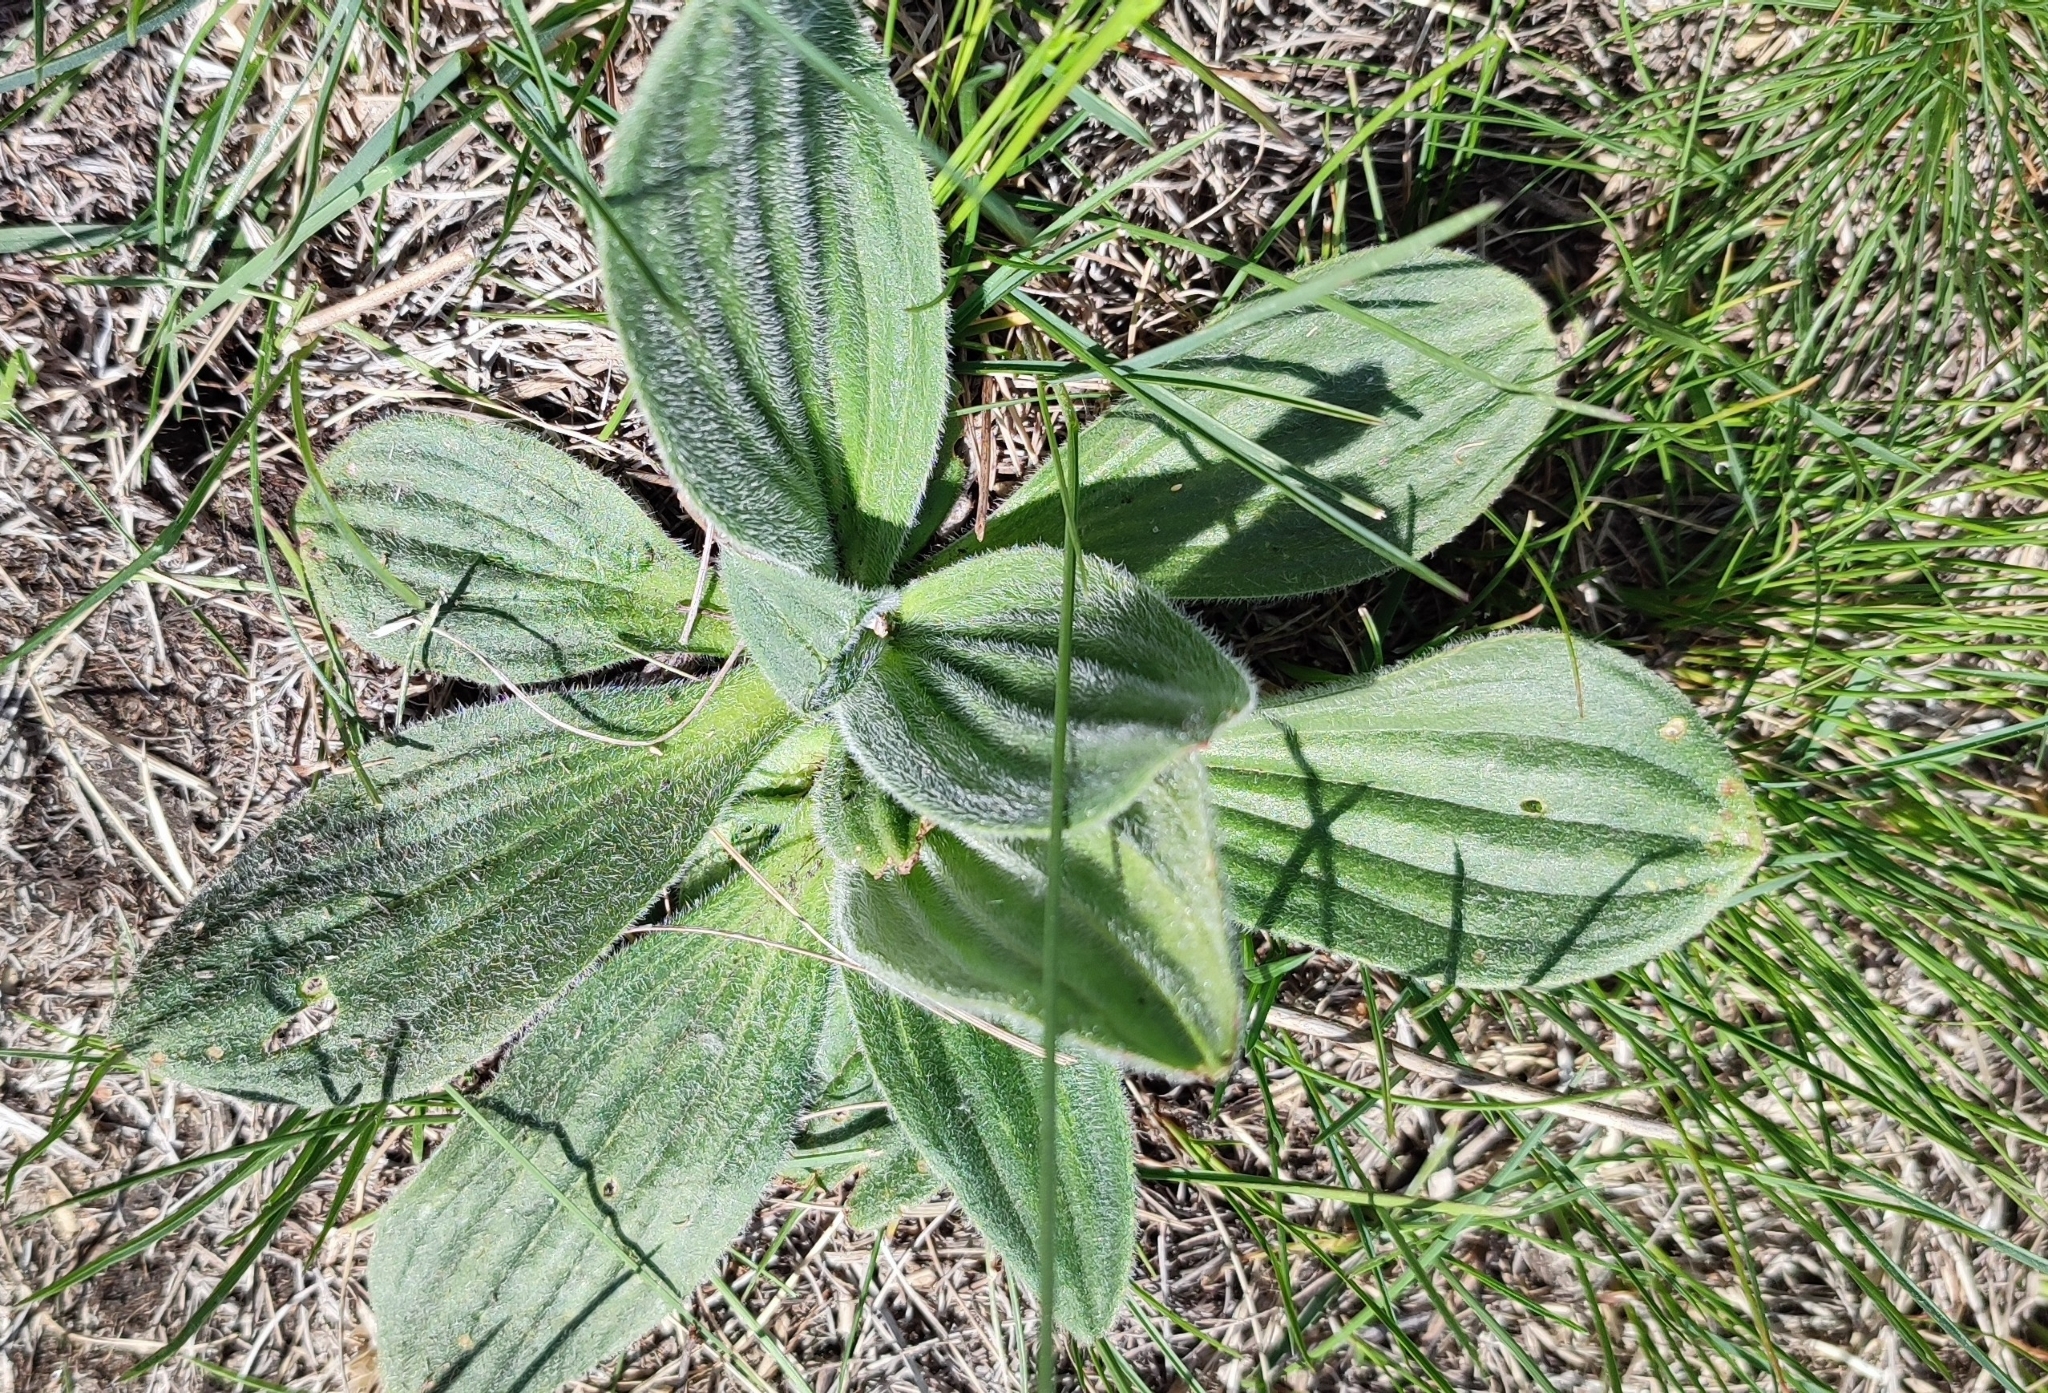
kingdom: Plantae
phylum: Tracheophyta
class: Magnoliopsida
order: Lamiales
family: Plantaginaceae
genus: Plantago
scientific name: Plantago media
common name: Hoary plantain
